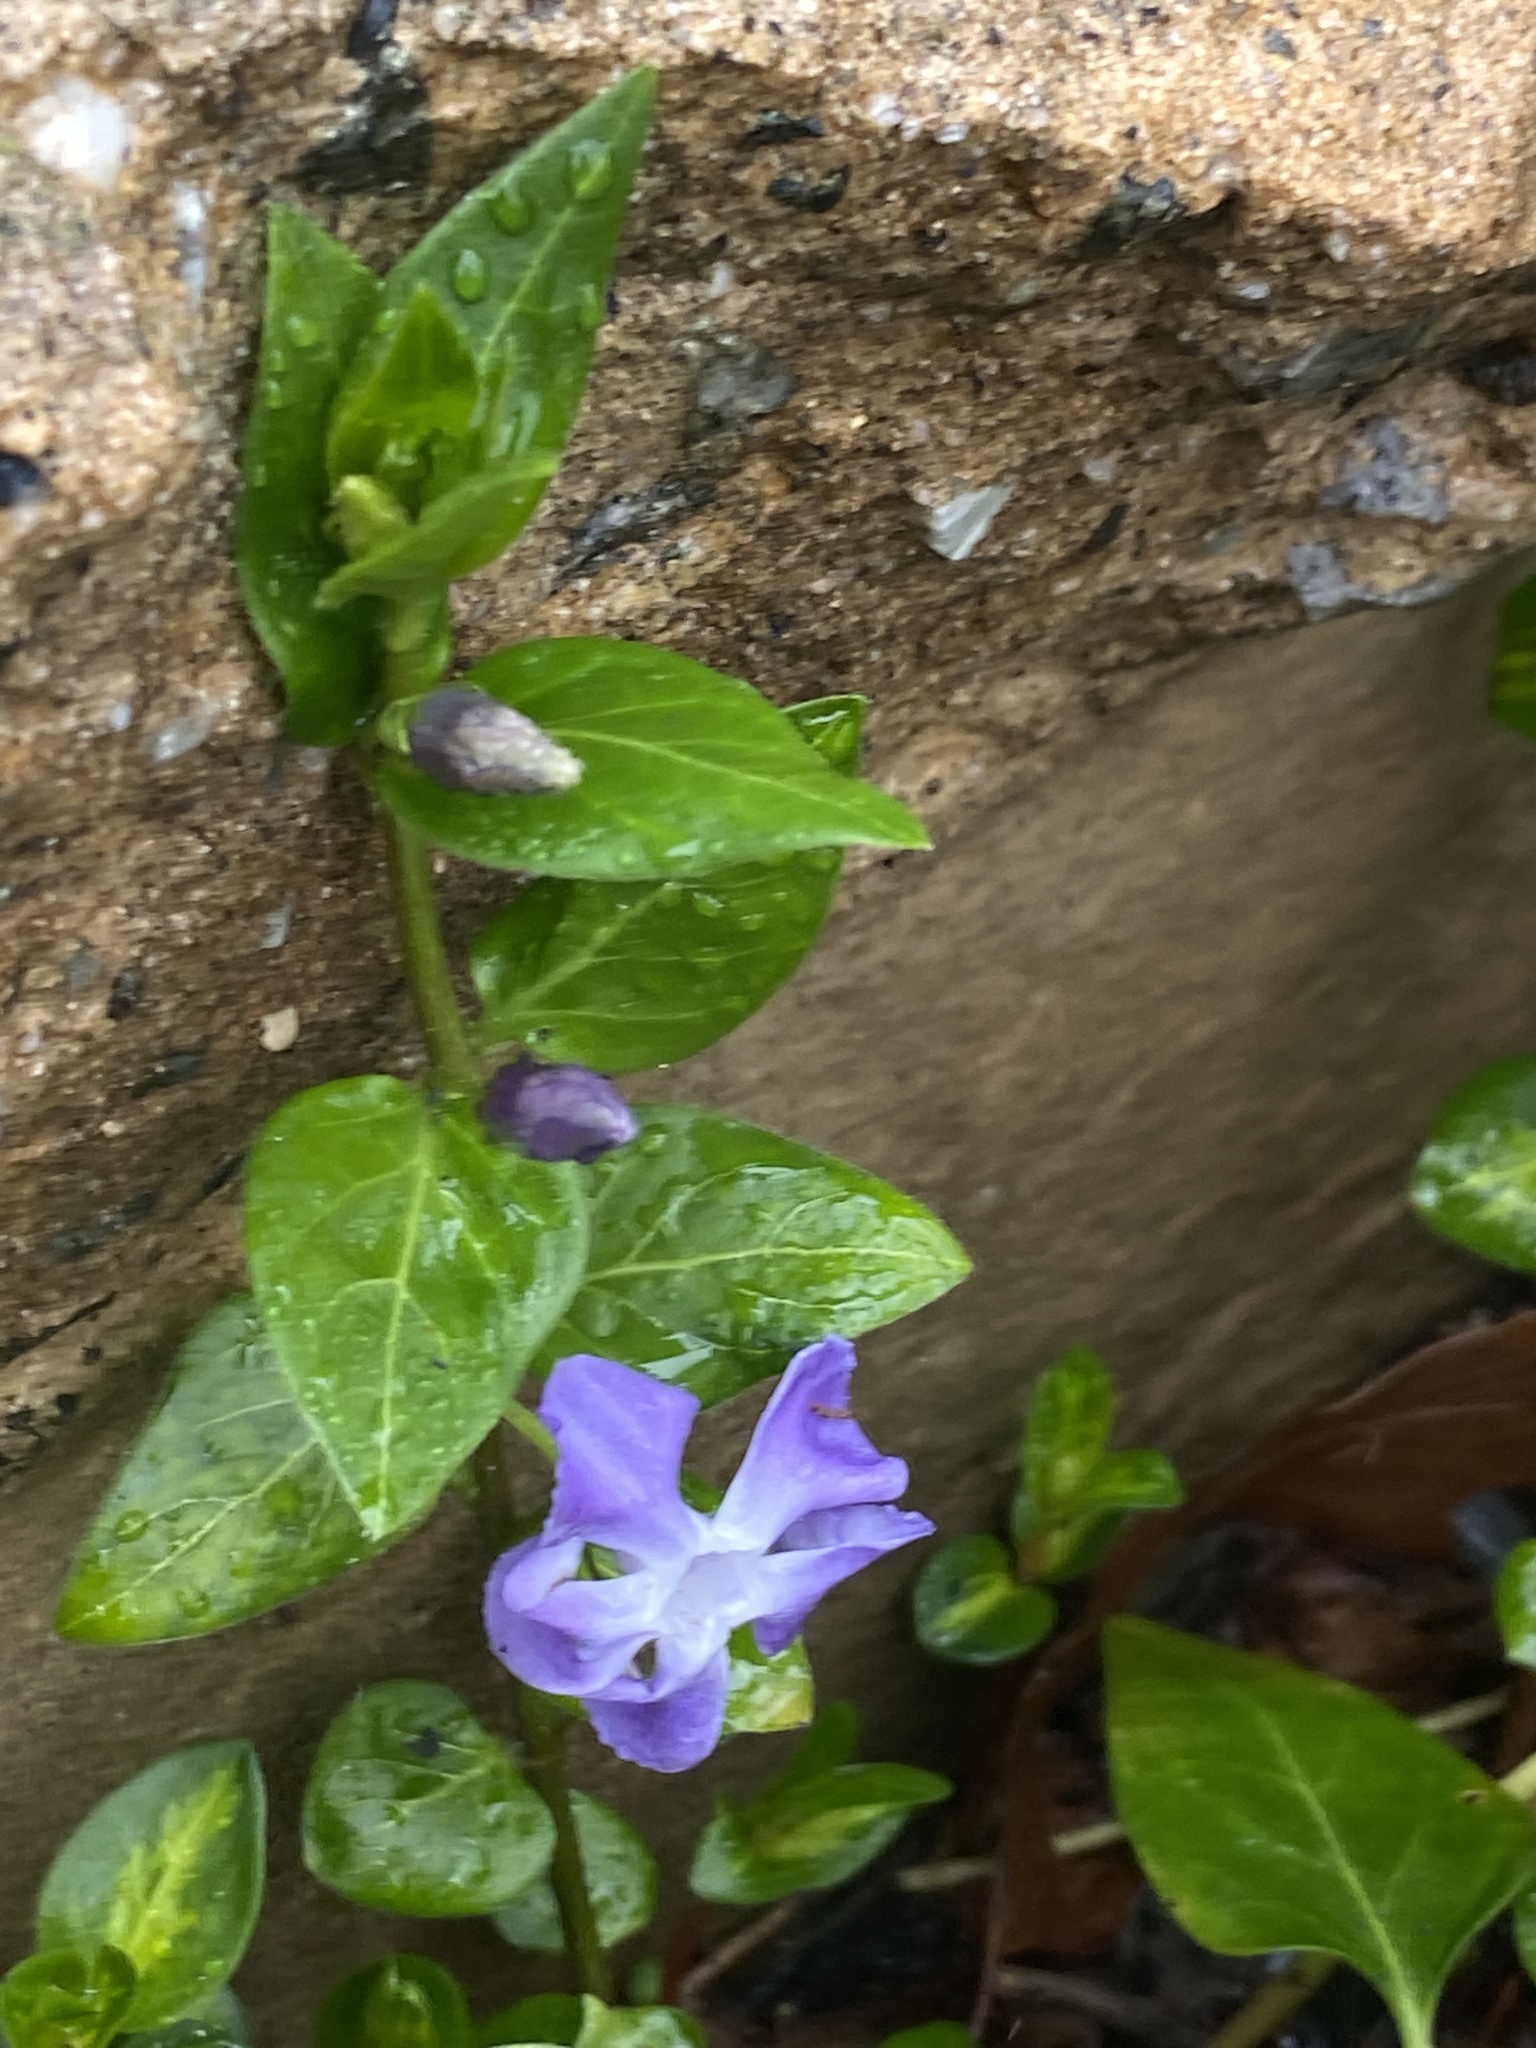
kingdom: Plantae
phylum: Tracheophyta
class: Magnoliopsida
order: Gentianales
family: Apocynaceae
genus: Vinca
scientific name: Vinca major
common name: Greater periwinkle
